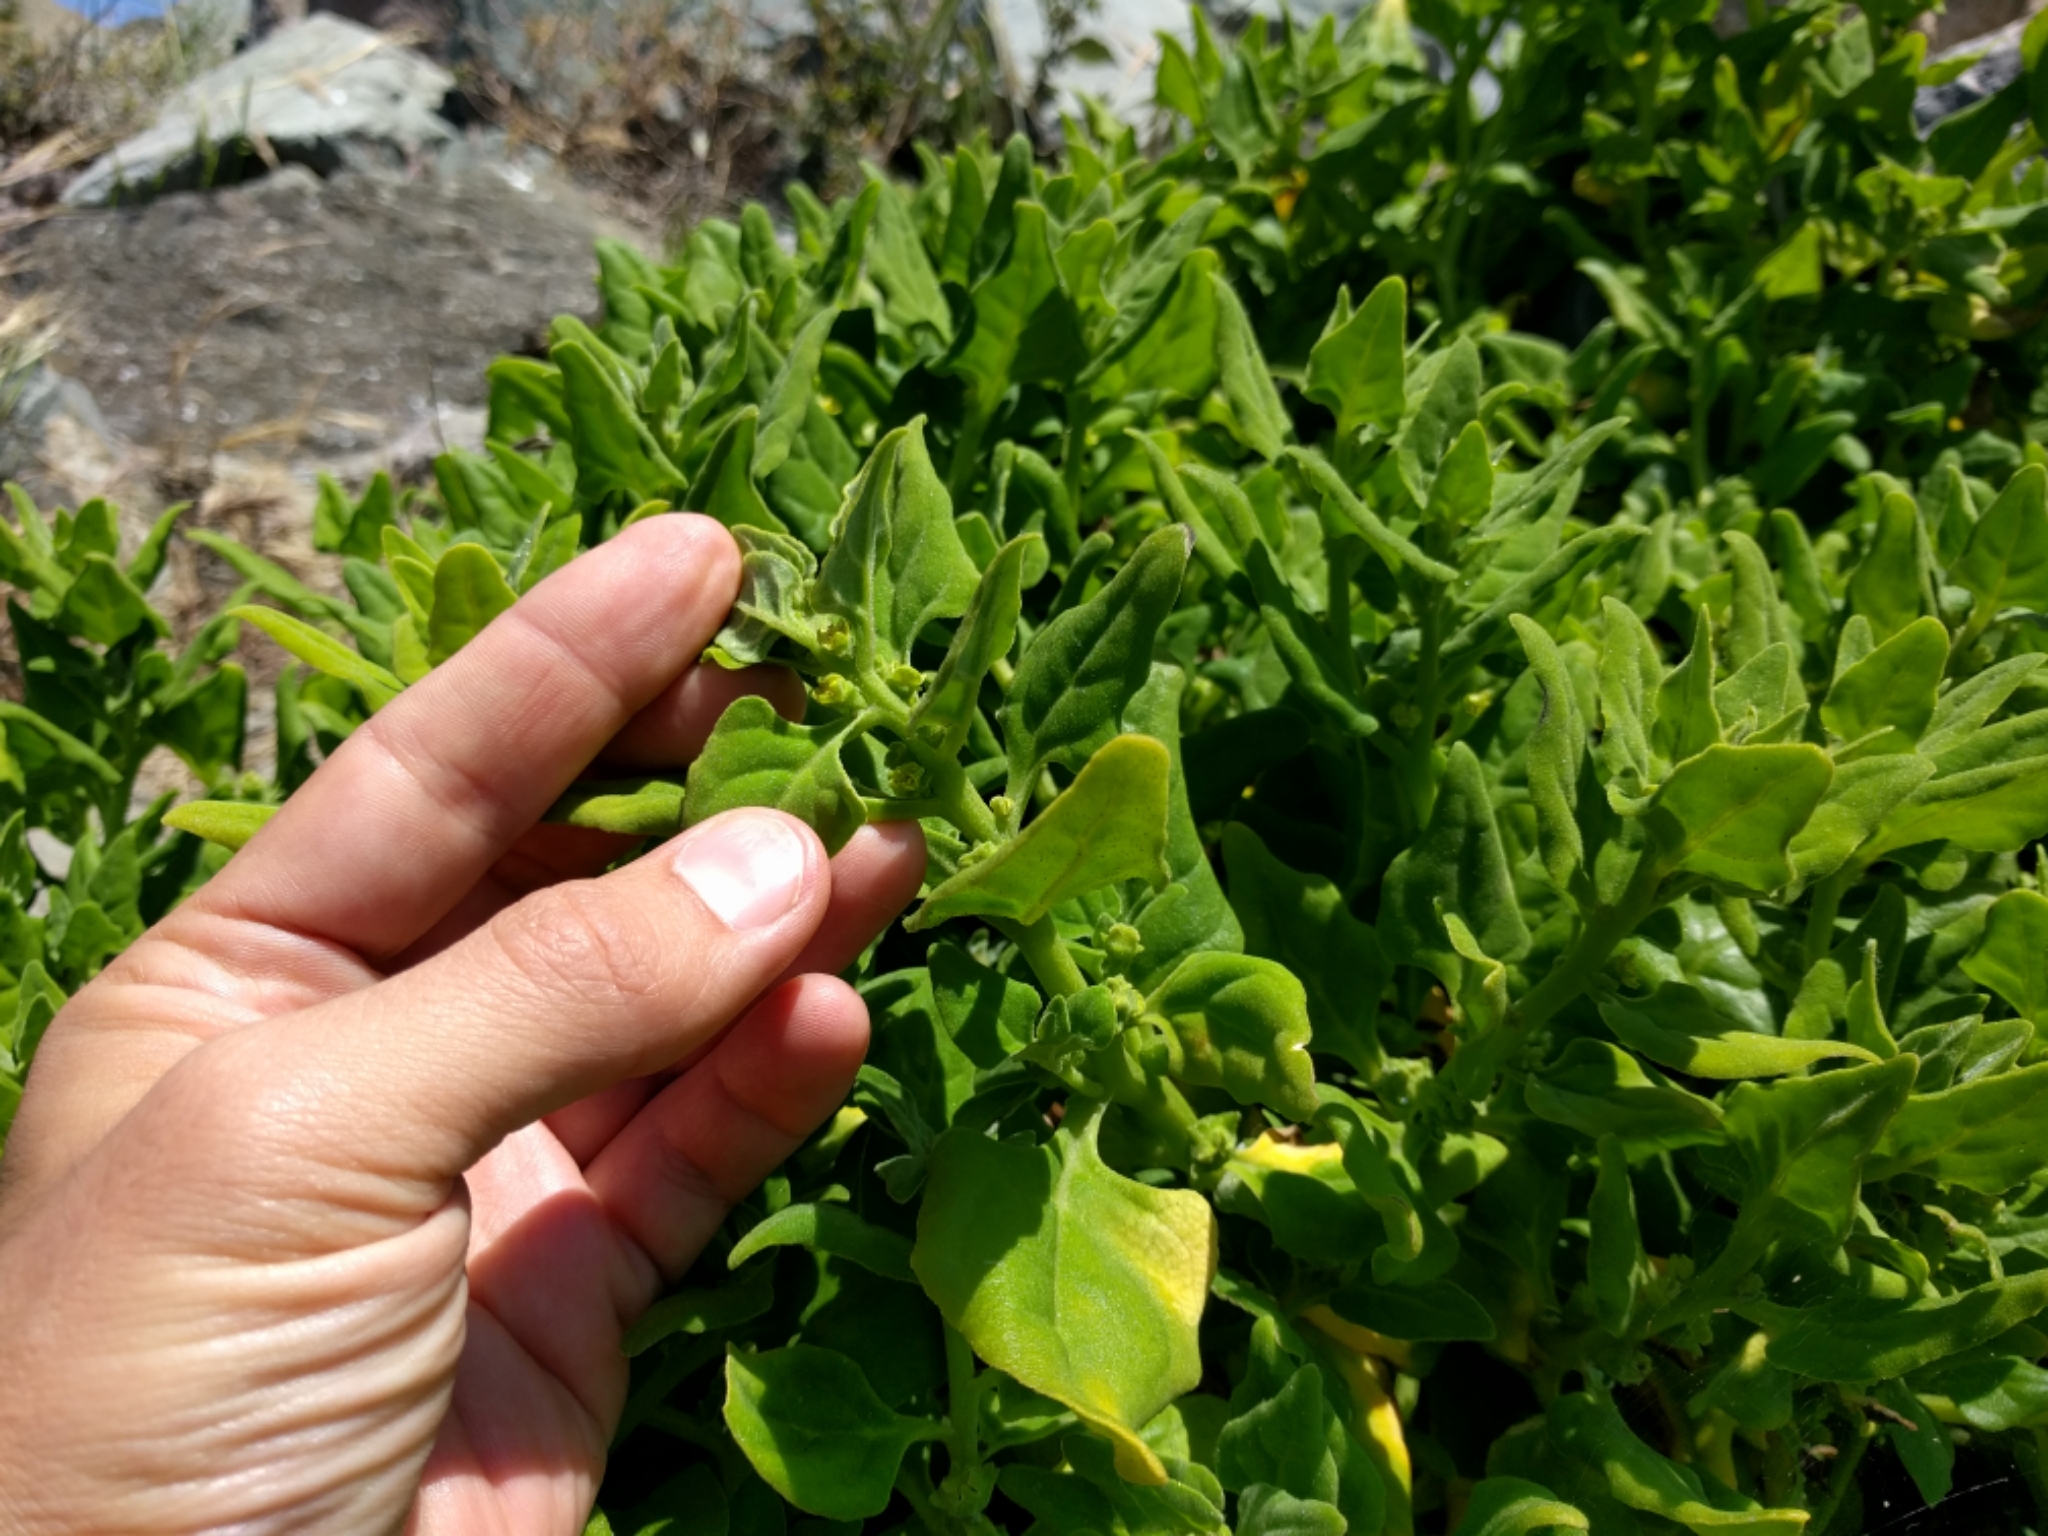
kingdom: Plantae
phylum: Tracheophyta
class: Magnoliopsida
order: Caryophyllales
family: Aizoaceae
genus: Tetragonia
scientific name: Tetragonia tetragonoides
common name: New zealand-spinach
